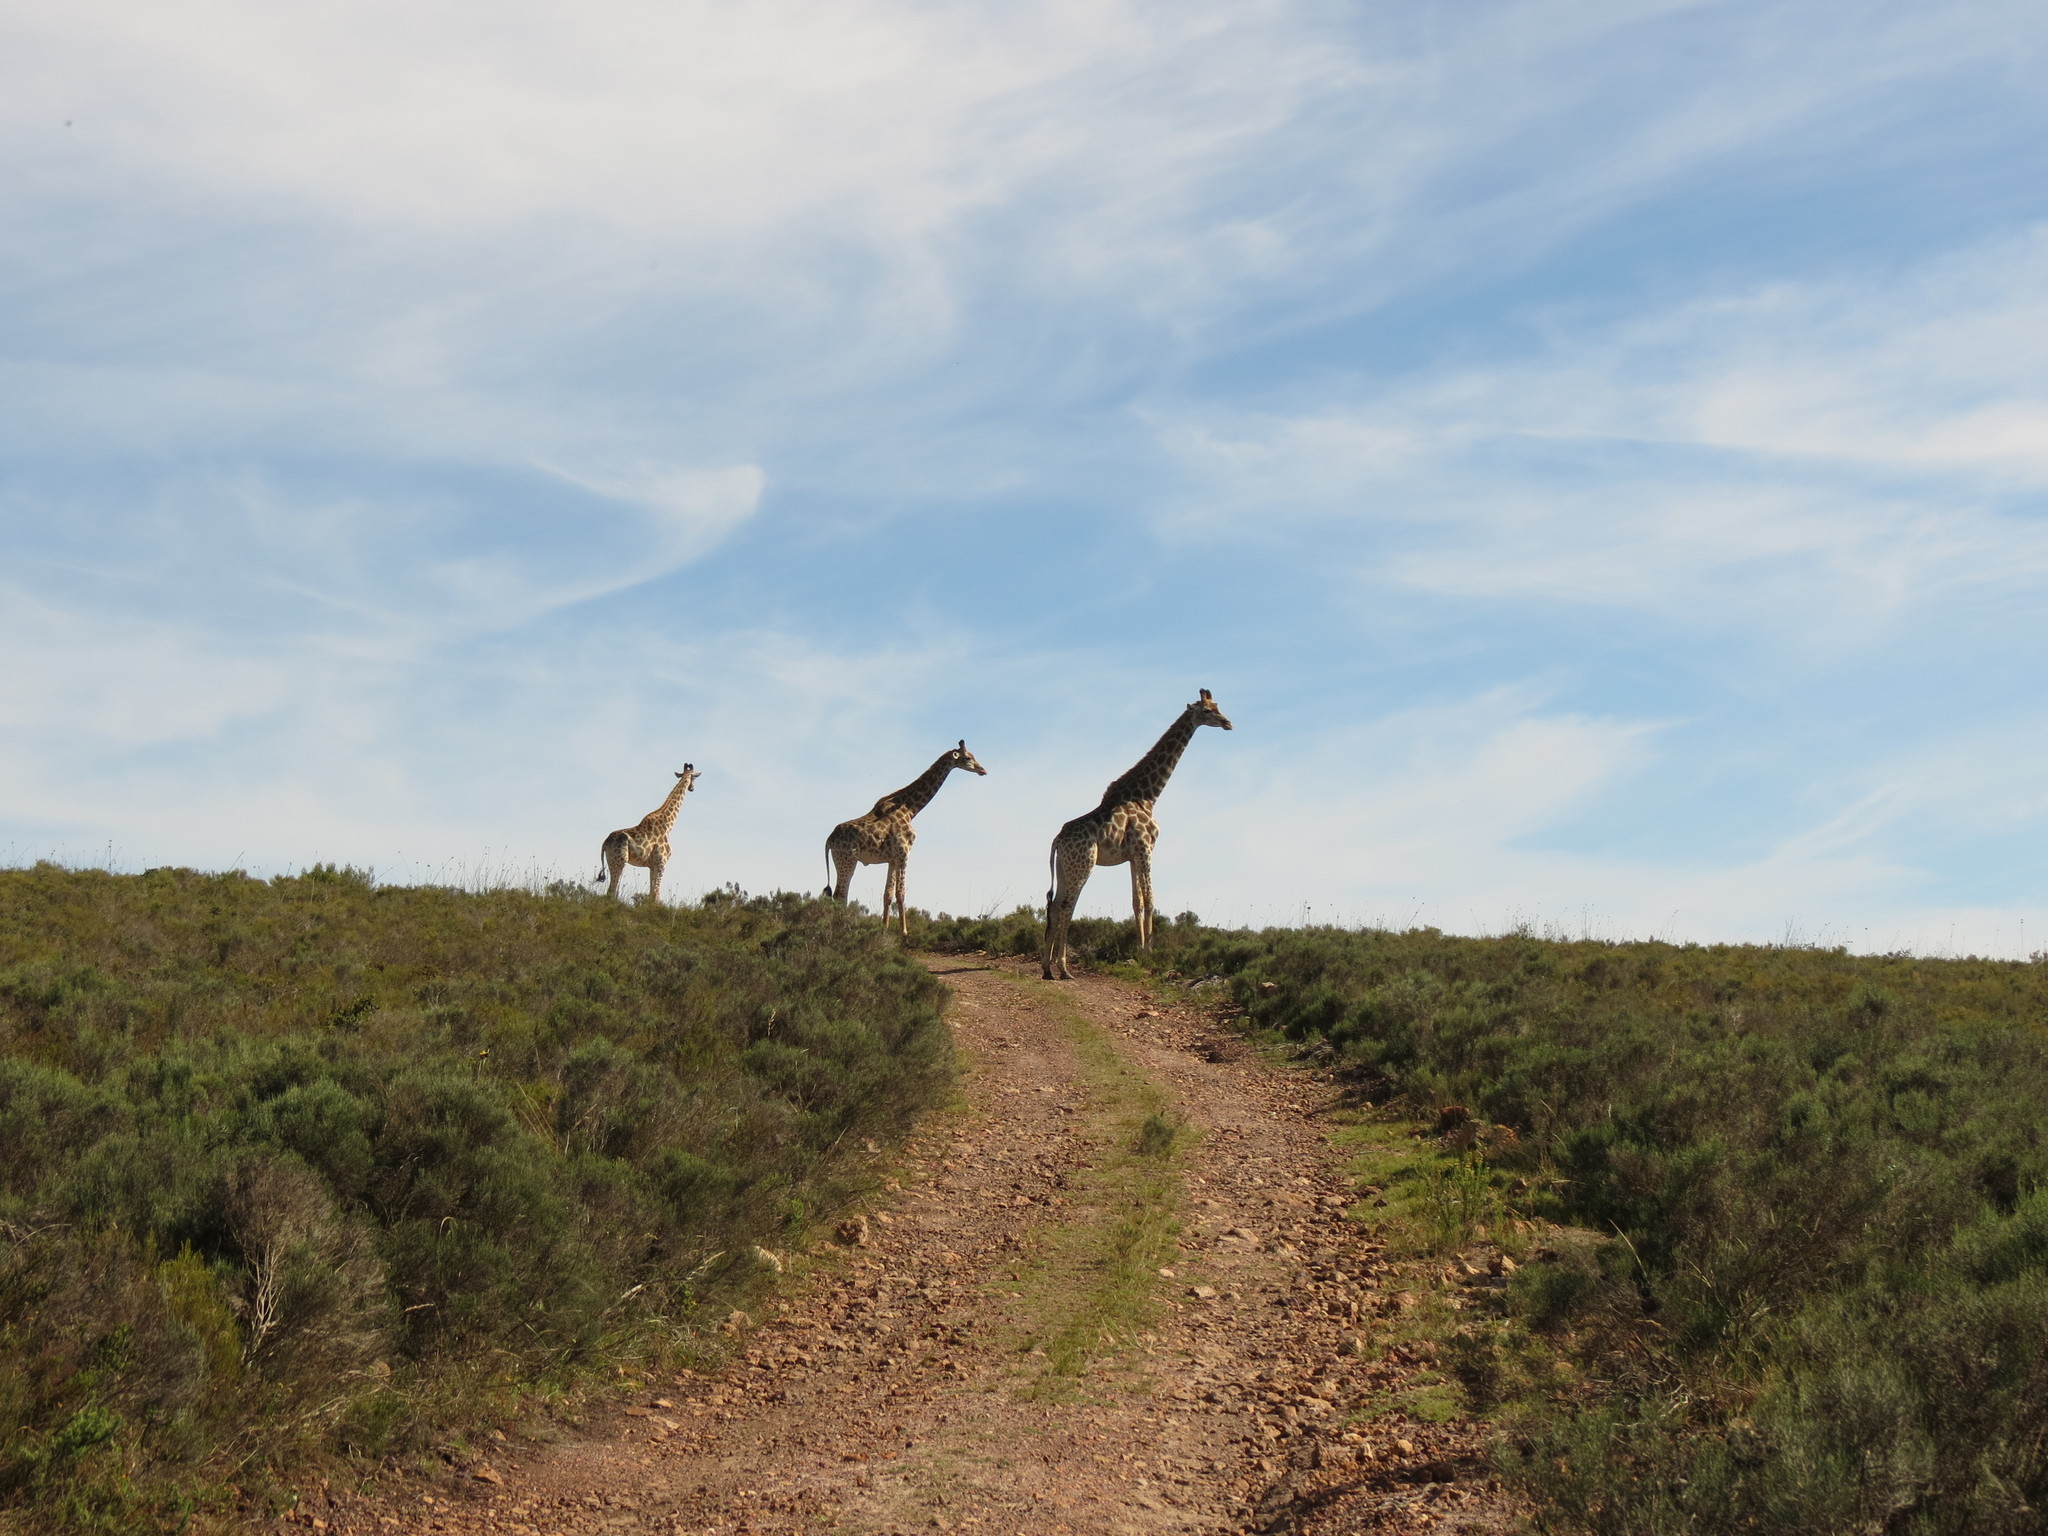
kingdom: Animalia
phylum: Chordata
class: Mammalia
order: Artiodactyla
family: Giraffidae
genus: Giraffa
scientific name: Giraffa giraffa
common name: Southern giraffe
